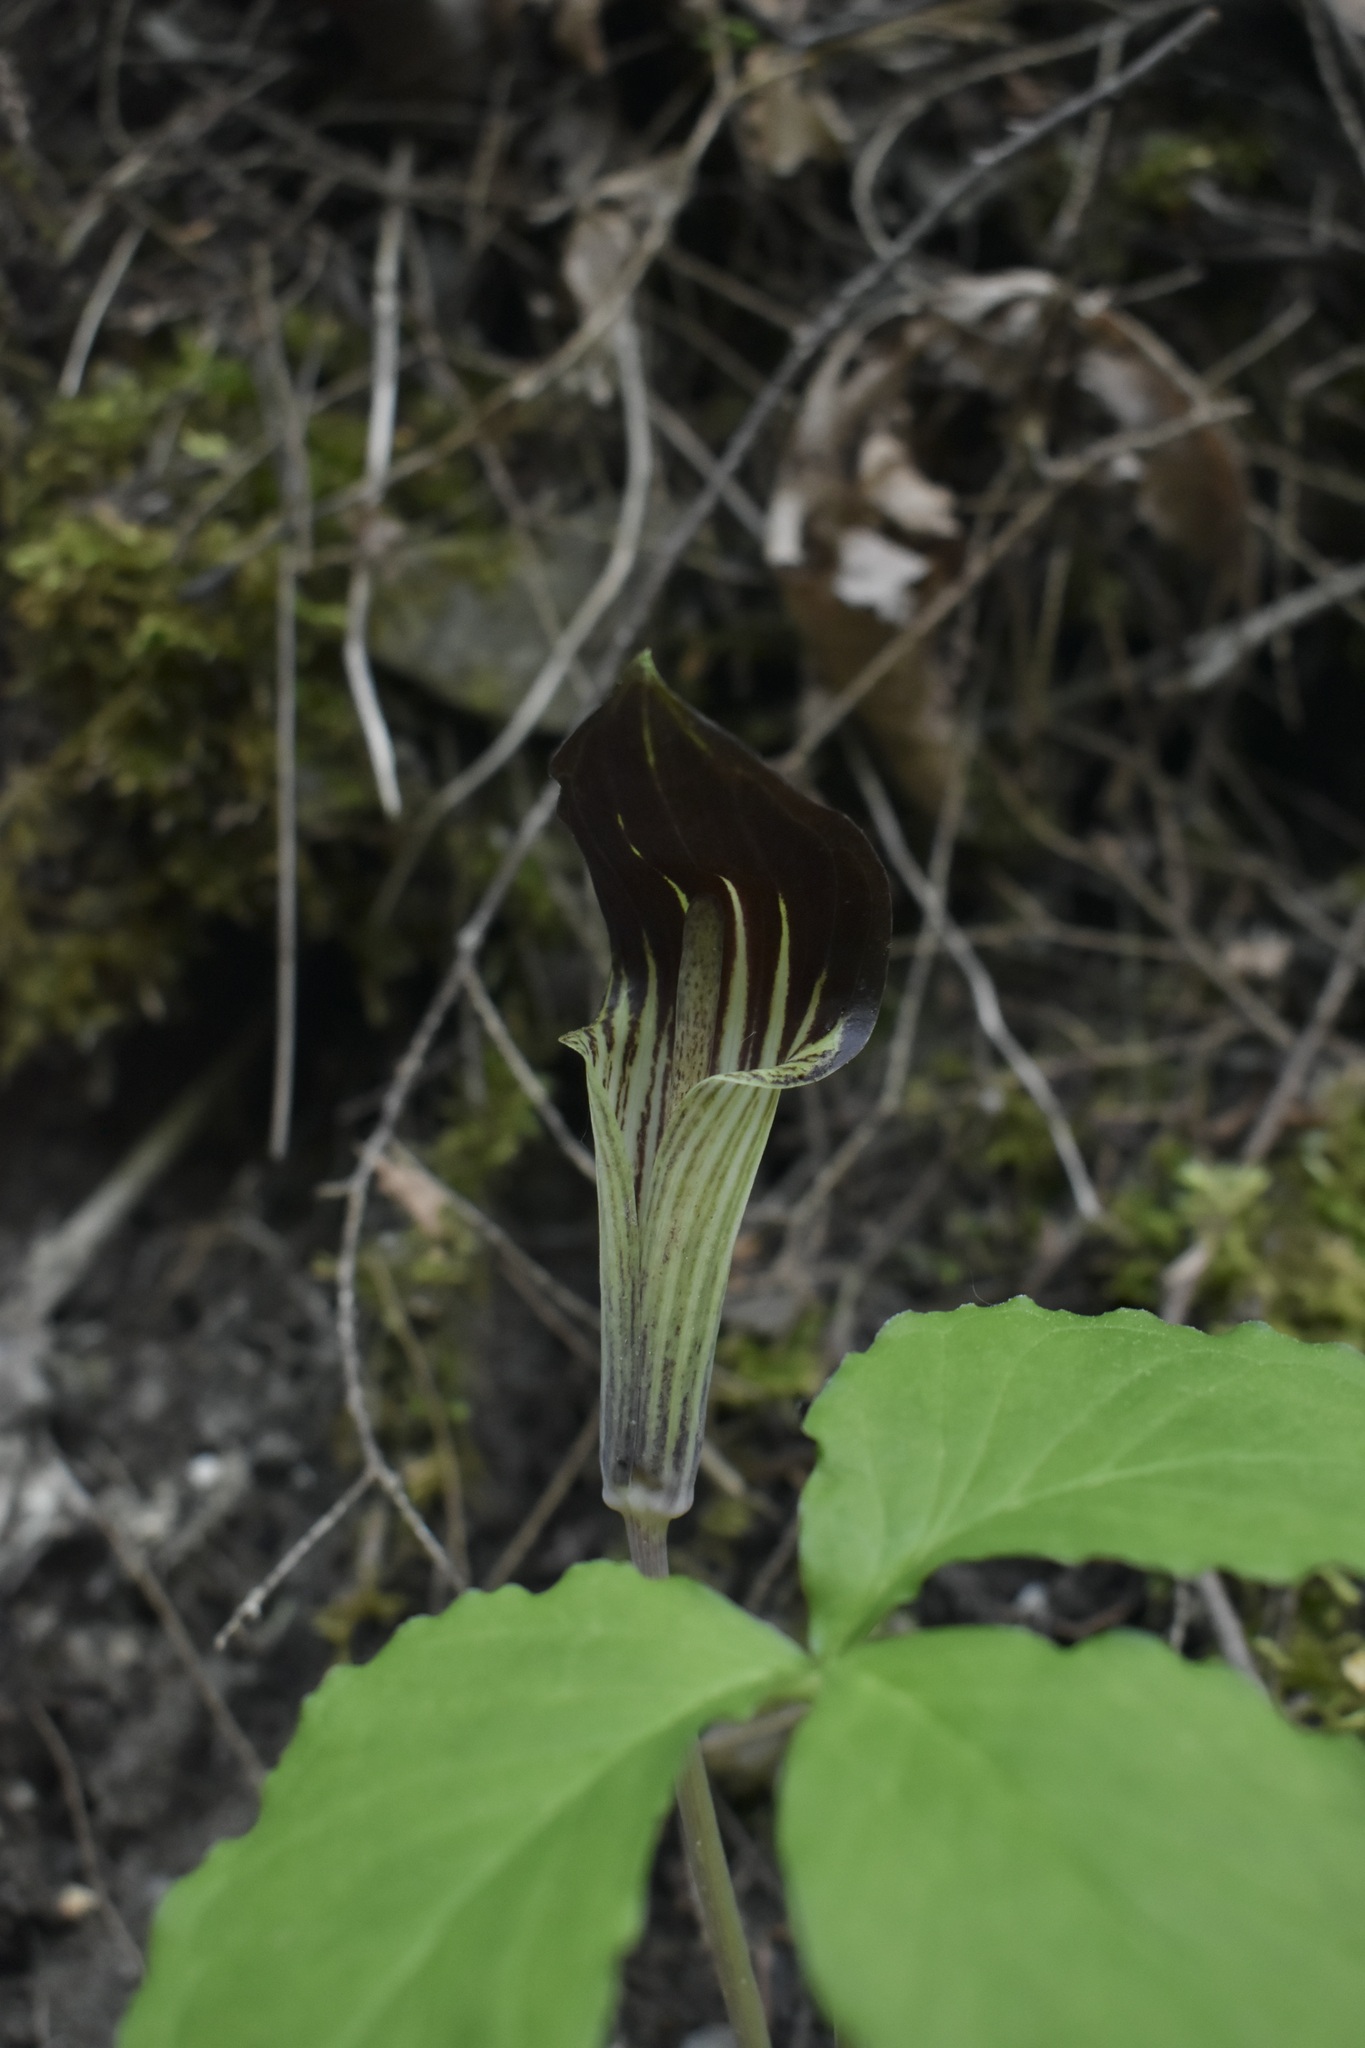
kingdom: Plantae
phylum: Tracheophyta
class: Liliopsida
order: Alismatales
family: Araceae
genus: Arisaema
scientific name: Arisaema triphyllum
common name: Jack-in-the-pulpit
